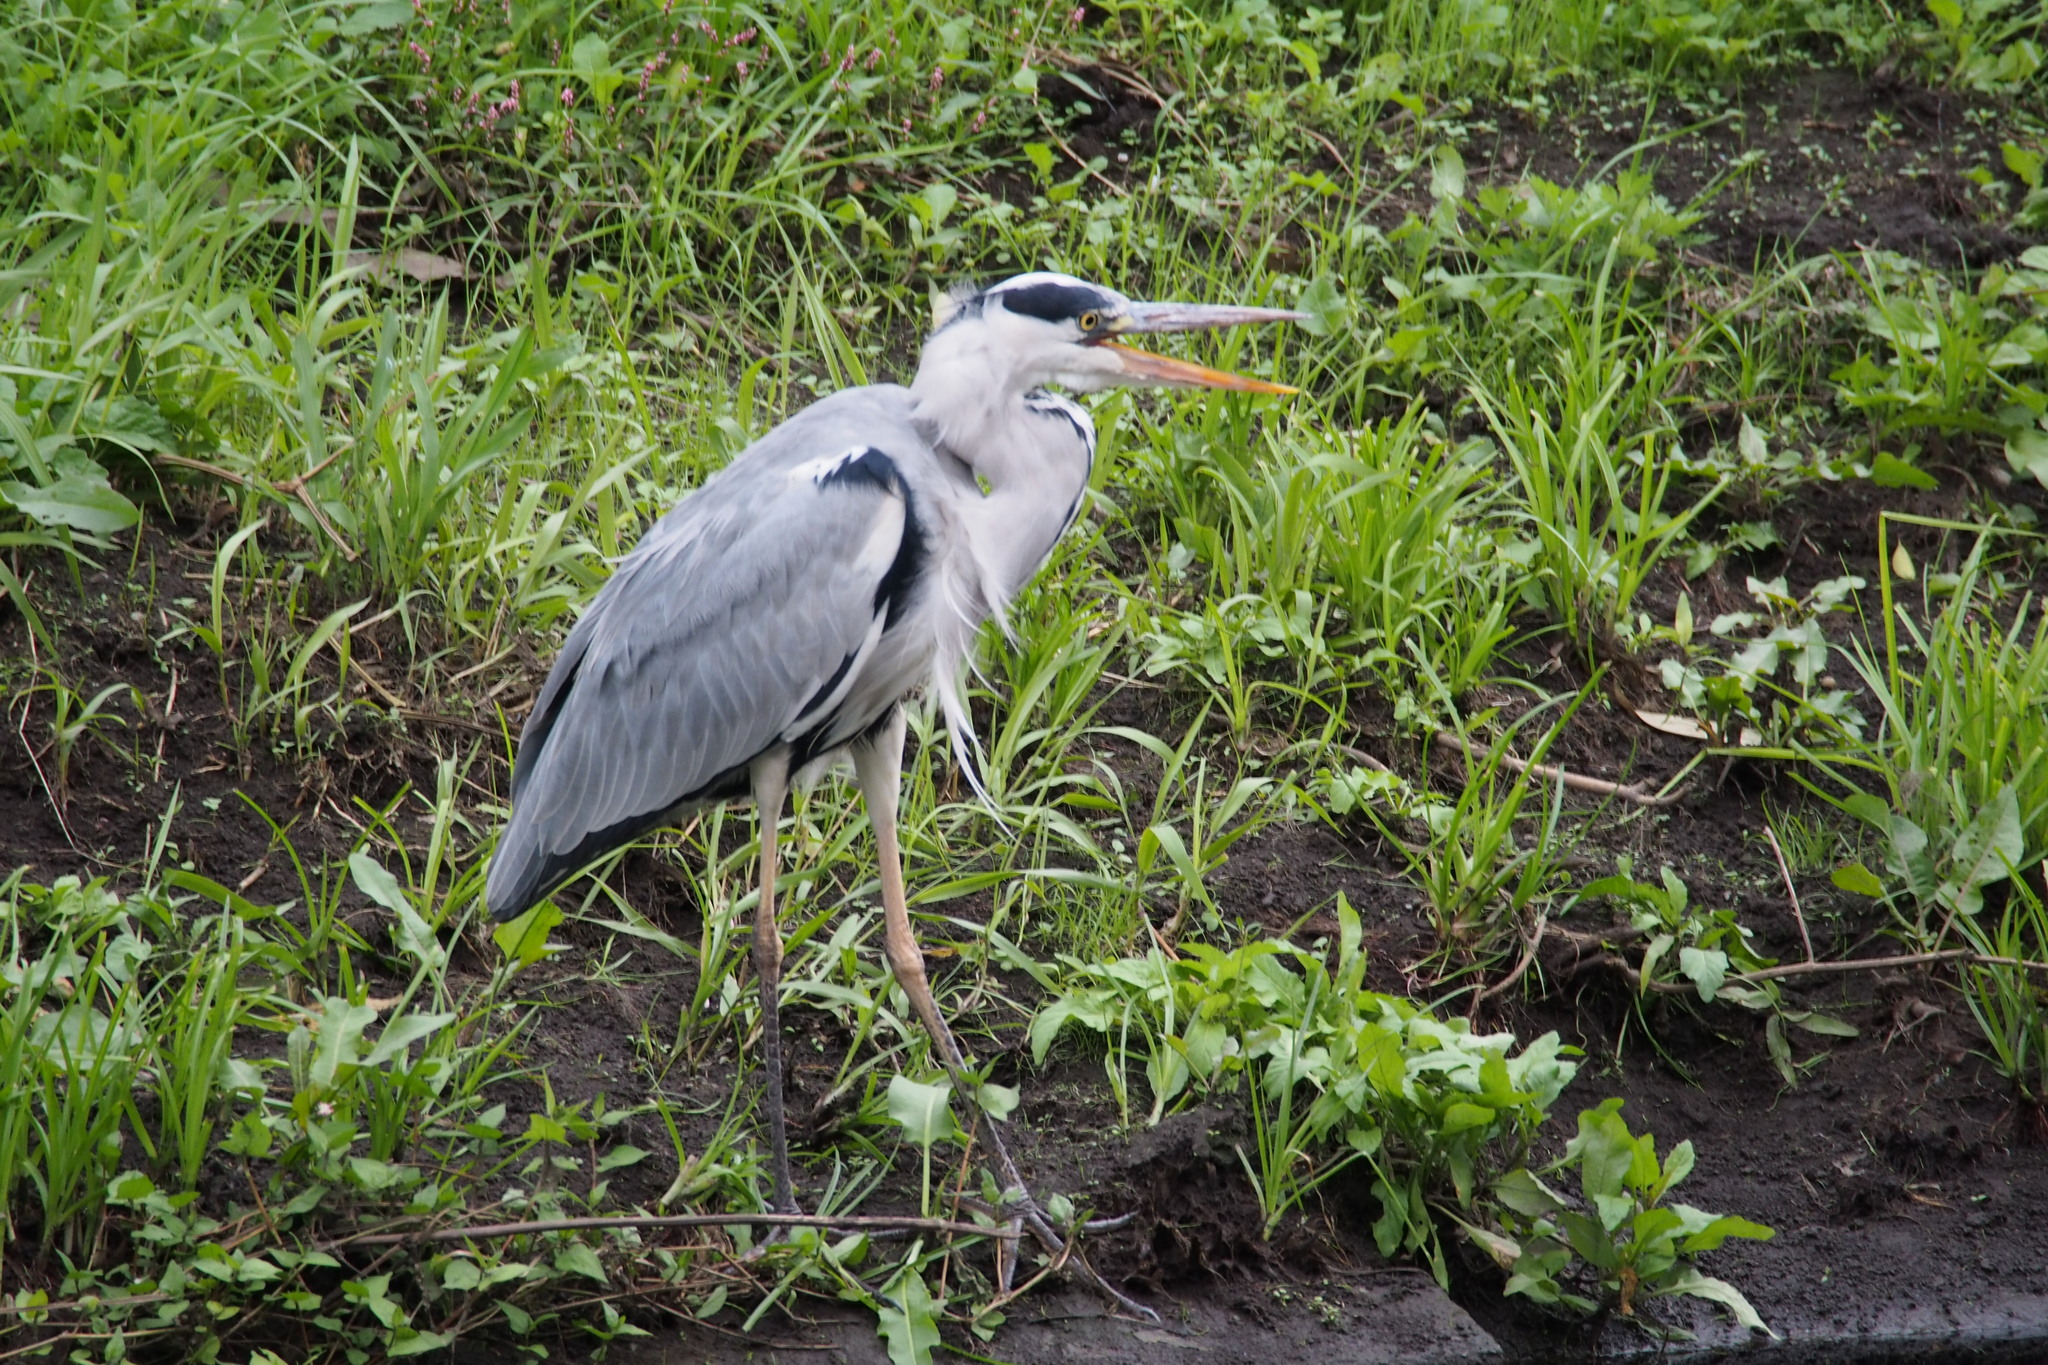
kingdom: Animalia
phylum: Chordata
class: Aves
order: Pelecaniformes
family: Ardeidae
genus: Ardea
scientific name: Ardea cinerea
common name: Grey heron
